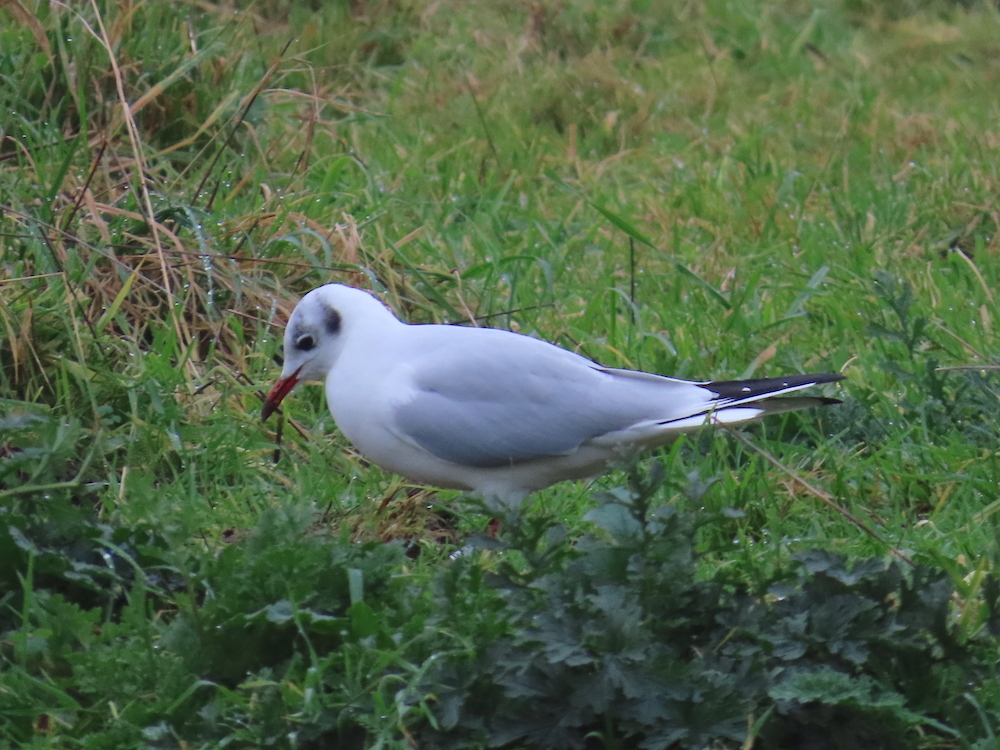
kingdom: Animalia
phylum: Chordata
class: Aves
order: Charadriiformes
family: Laridae
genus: Chroicocephalus
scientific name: Chroicocephalus ridibundus
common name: Black-headed gull
